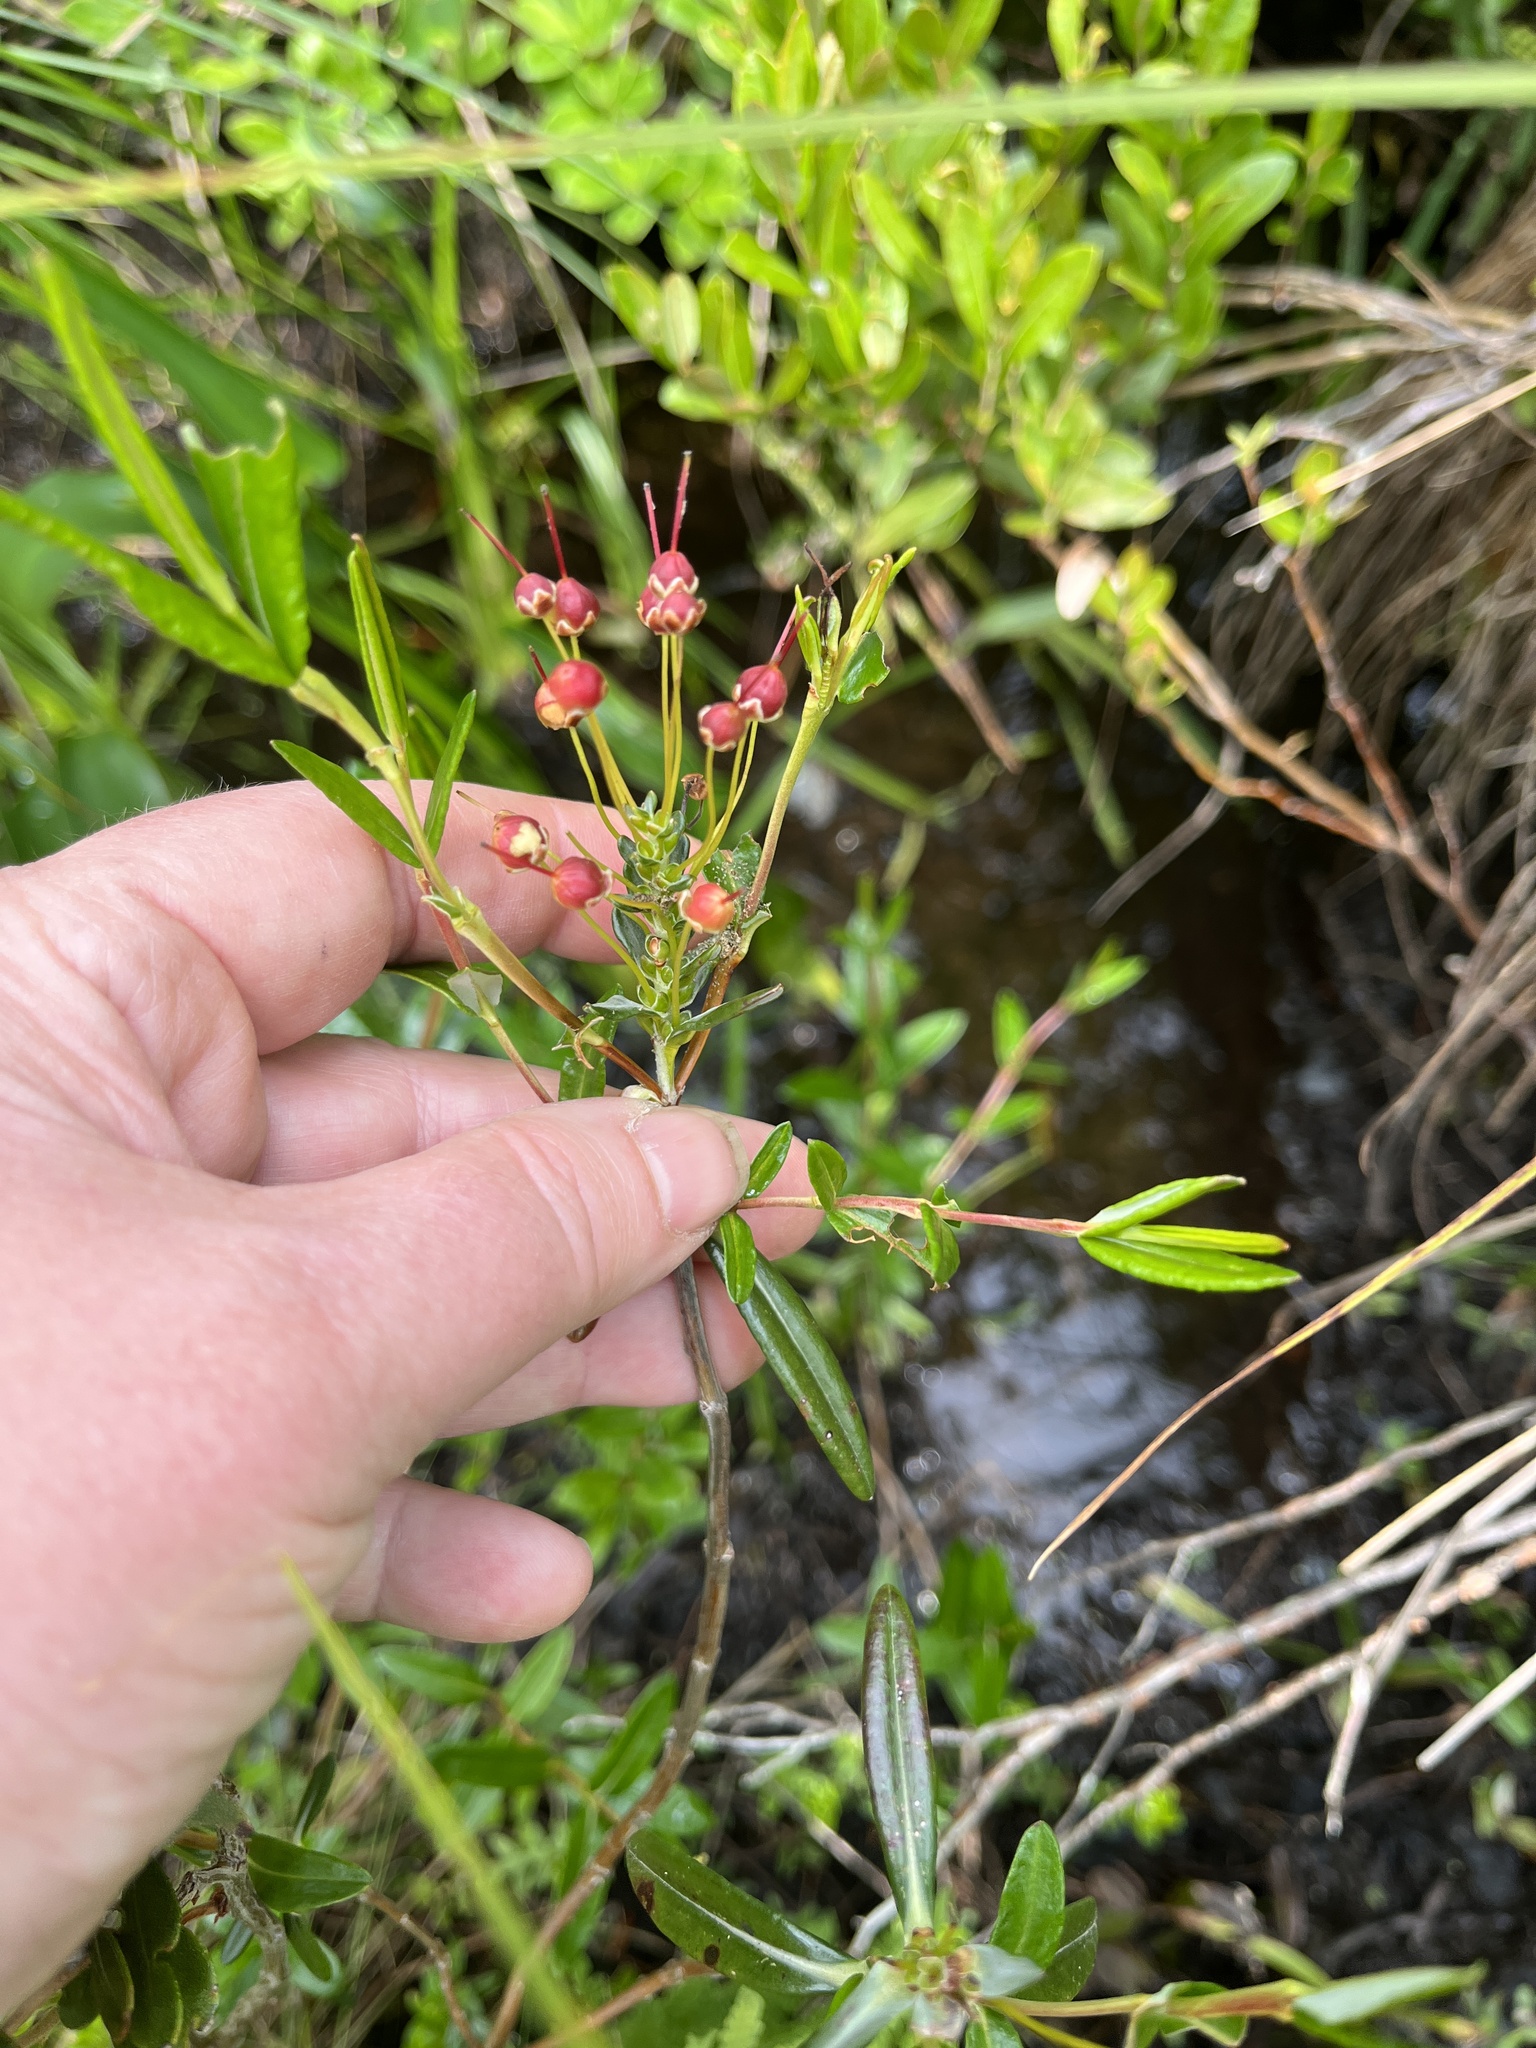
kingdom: Plantae
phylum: Tracheophyta
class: Magnoliopsida
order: Ericales
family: Ericaceae
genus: Kalmia
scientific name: Kalmia polifolia
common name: Bog-laurel
